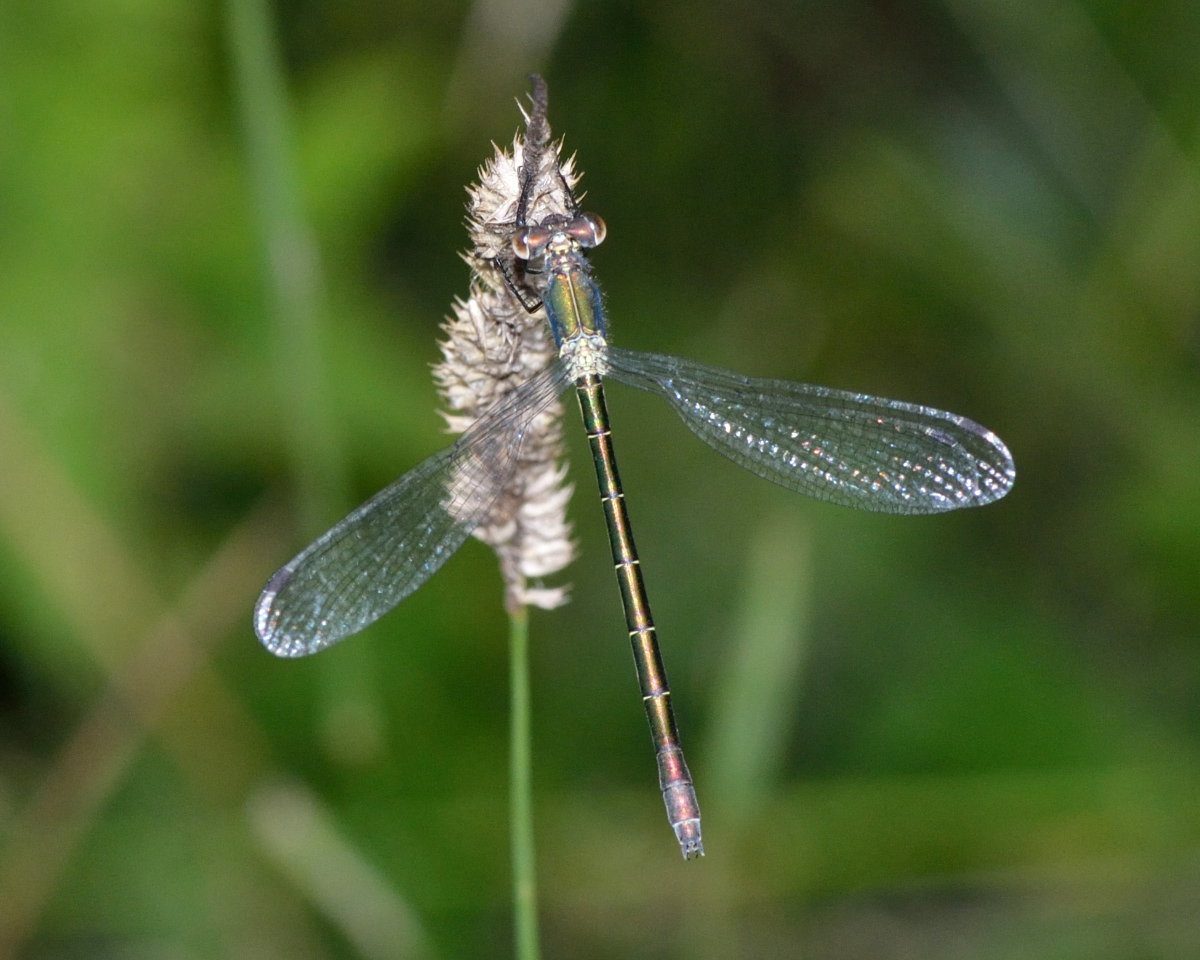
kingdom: Animalia
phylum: Arthropoda
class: Insecta
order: Odonata
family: Lestidae
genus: Lestes
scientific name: Lestes dryas
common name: Scarce emerald damselfly
